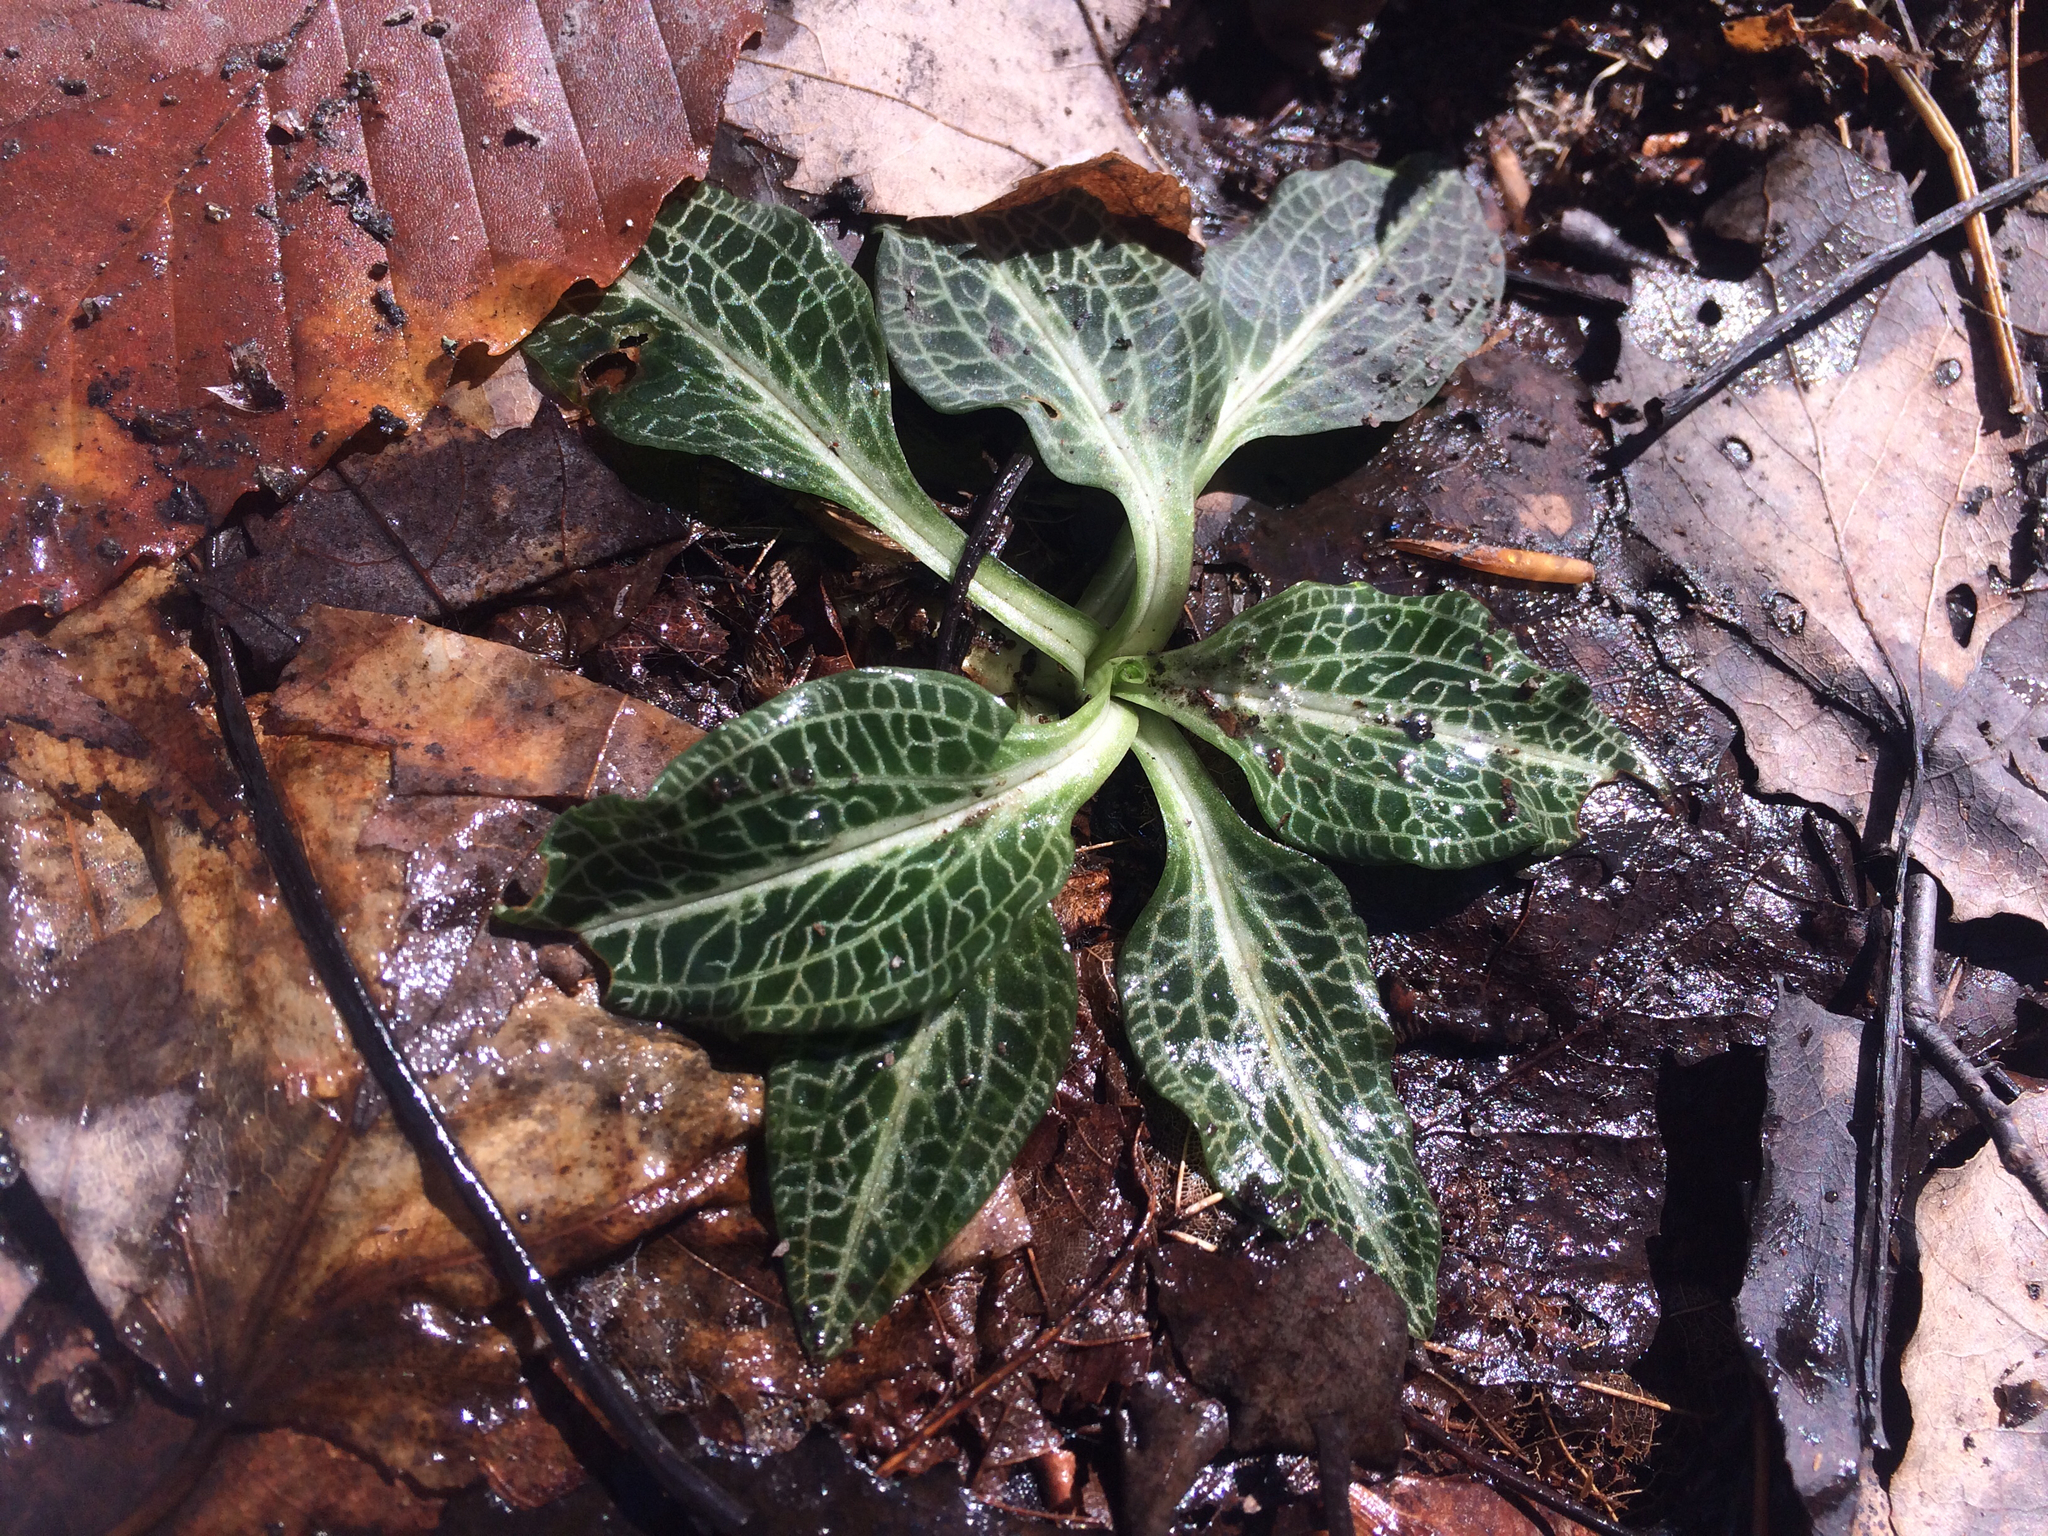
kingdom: Plantae
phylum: Tracheophyta
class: Liliopsida
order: Asparagales
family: Orchidaceae
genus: Goodyera
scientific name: Goodyera pubescens
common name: Downy rattlesnake-plantain
